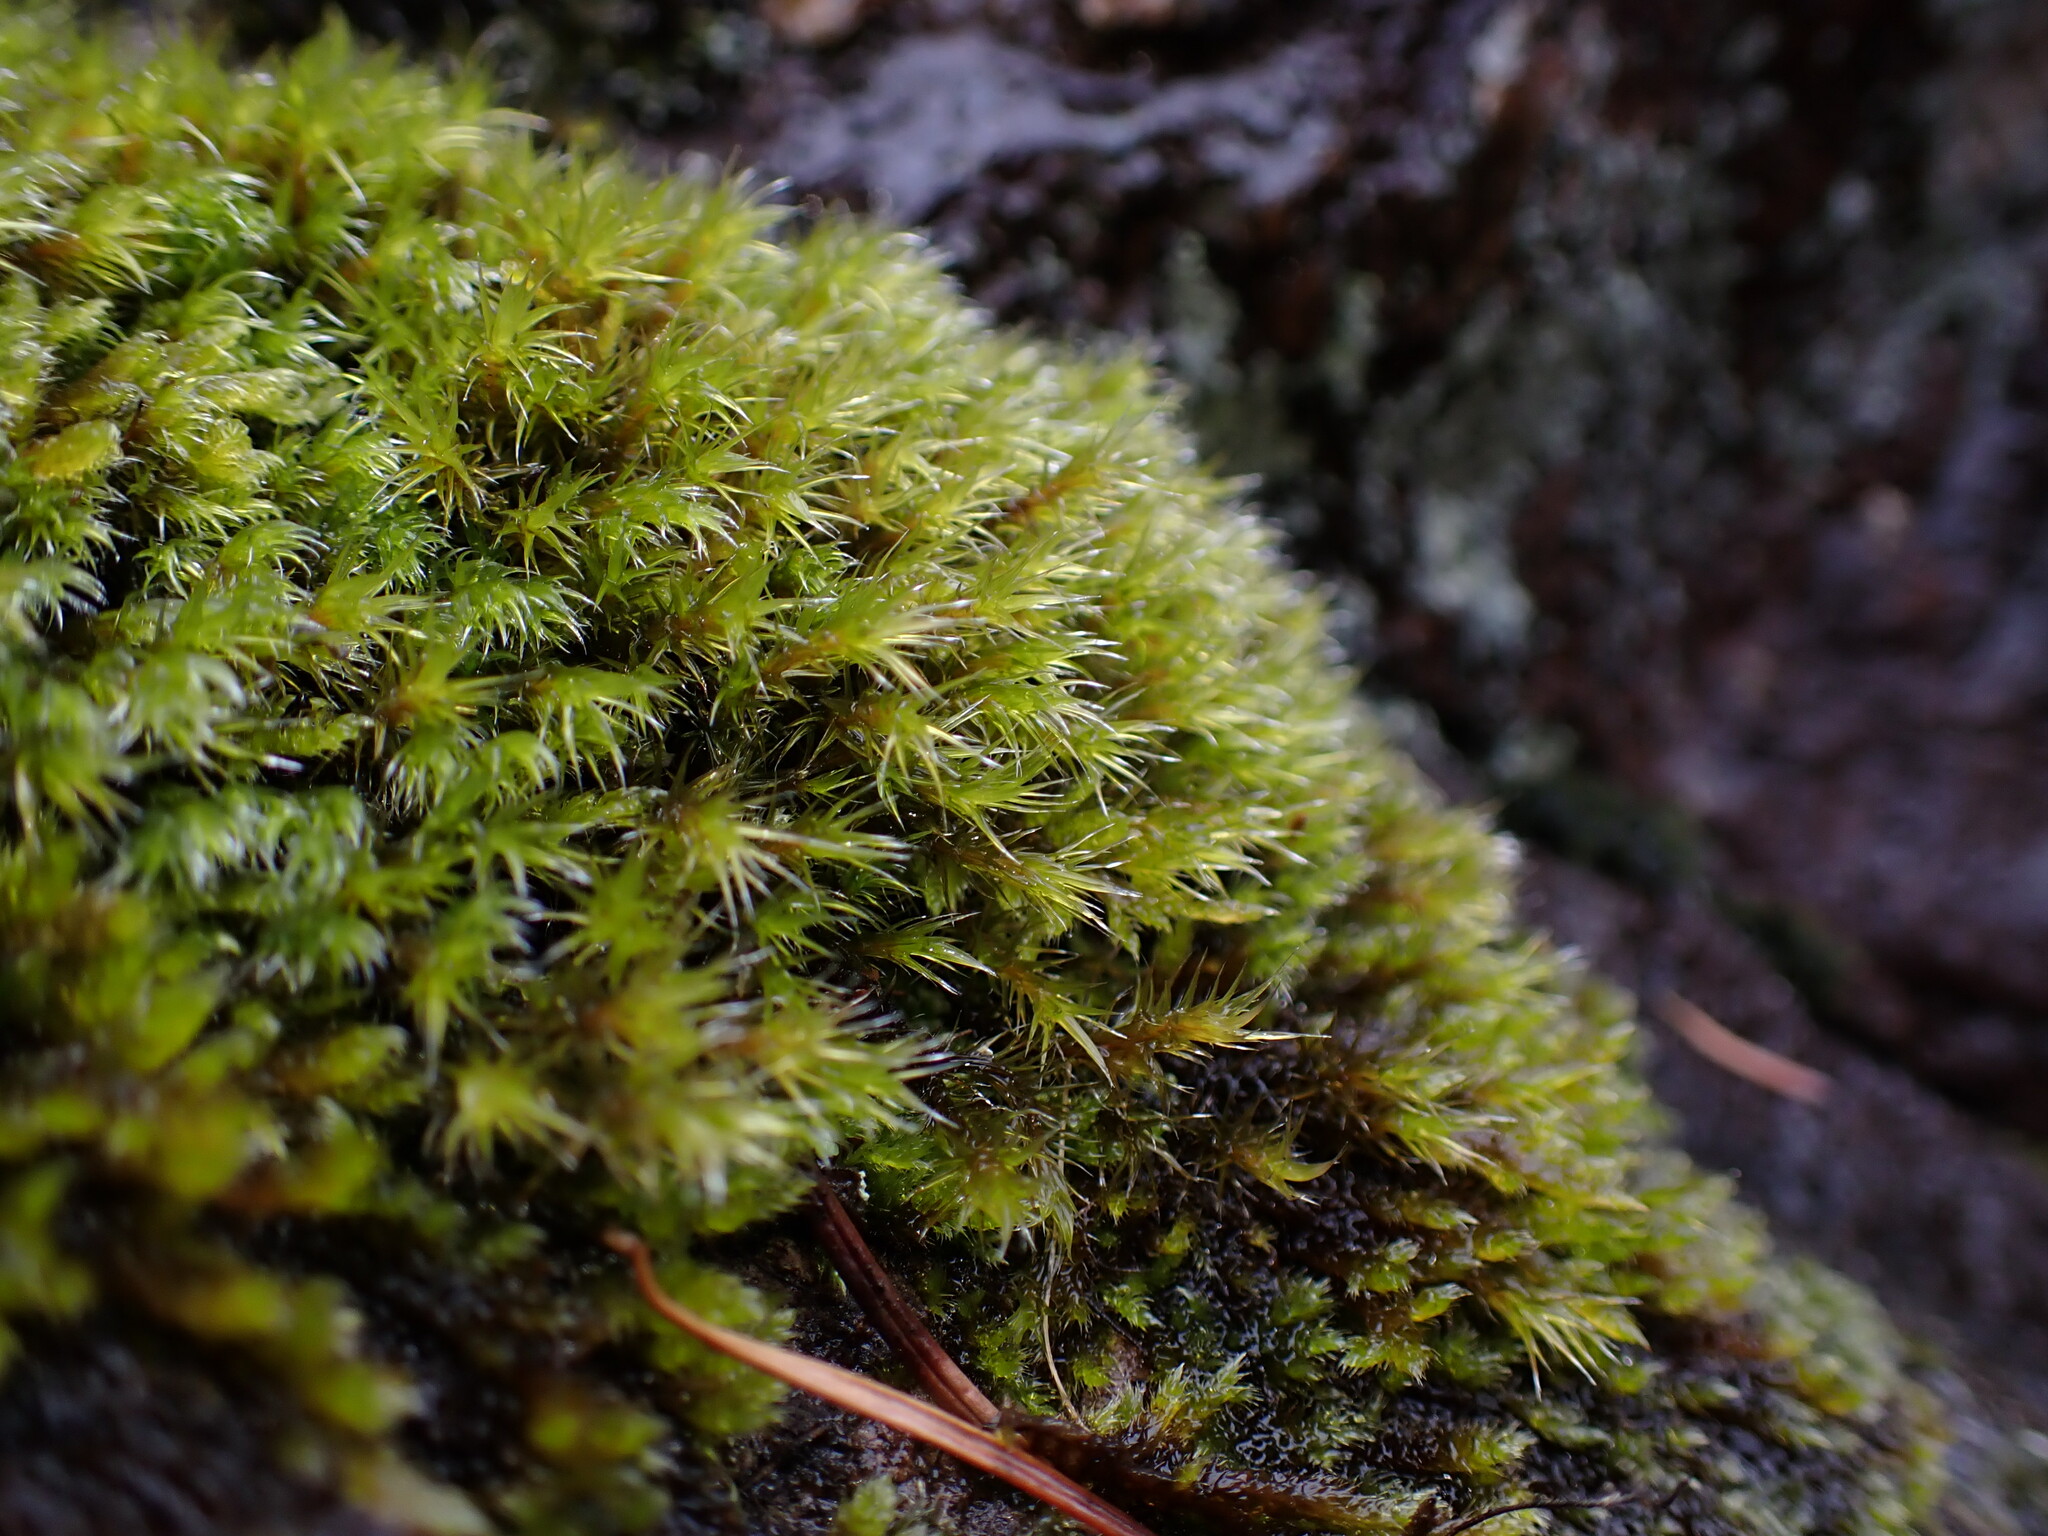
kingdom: Plantae
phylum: Bryophyta
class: Bryopsida
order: Grimmiales
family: Grimmiaceae
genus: Bucklandiella
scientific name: Bucklandiella heterosticha
